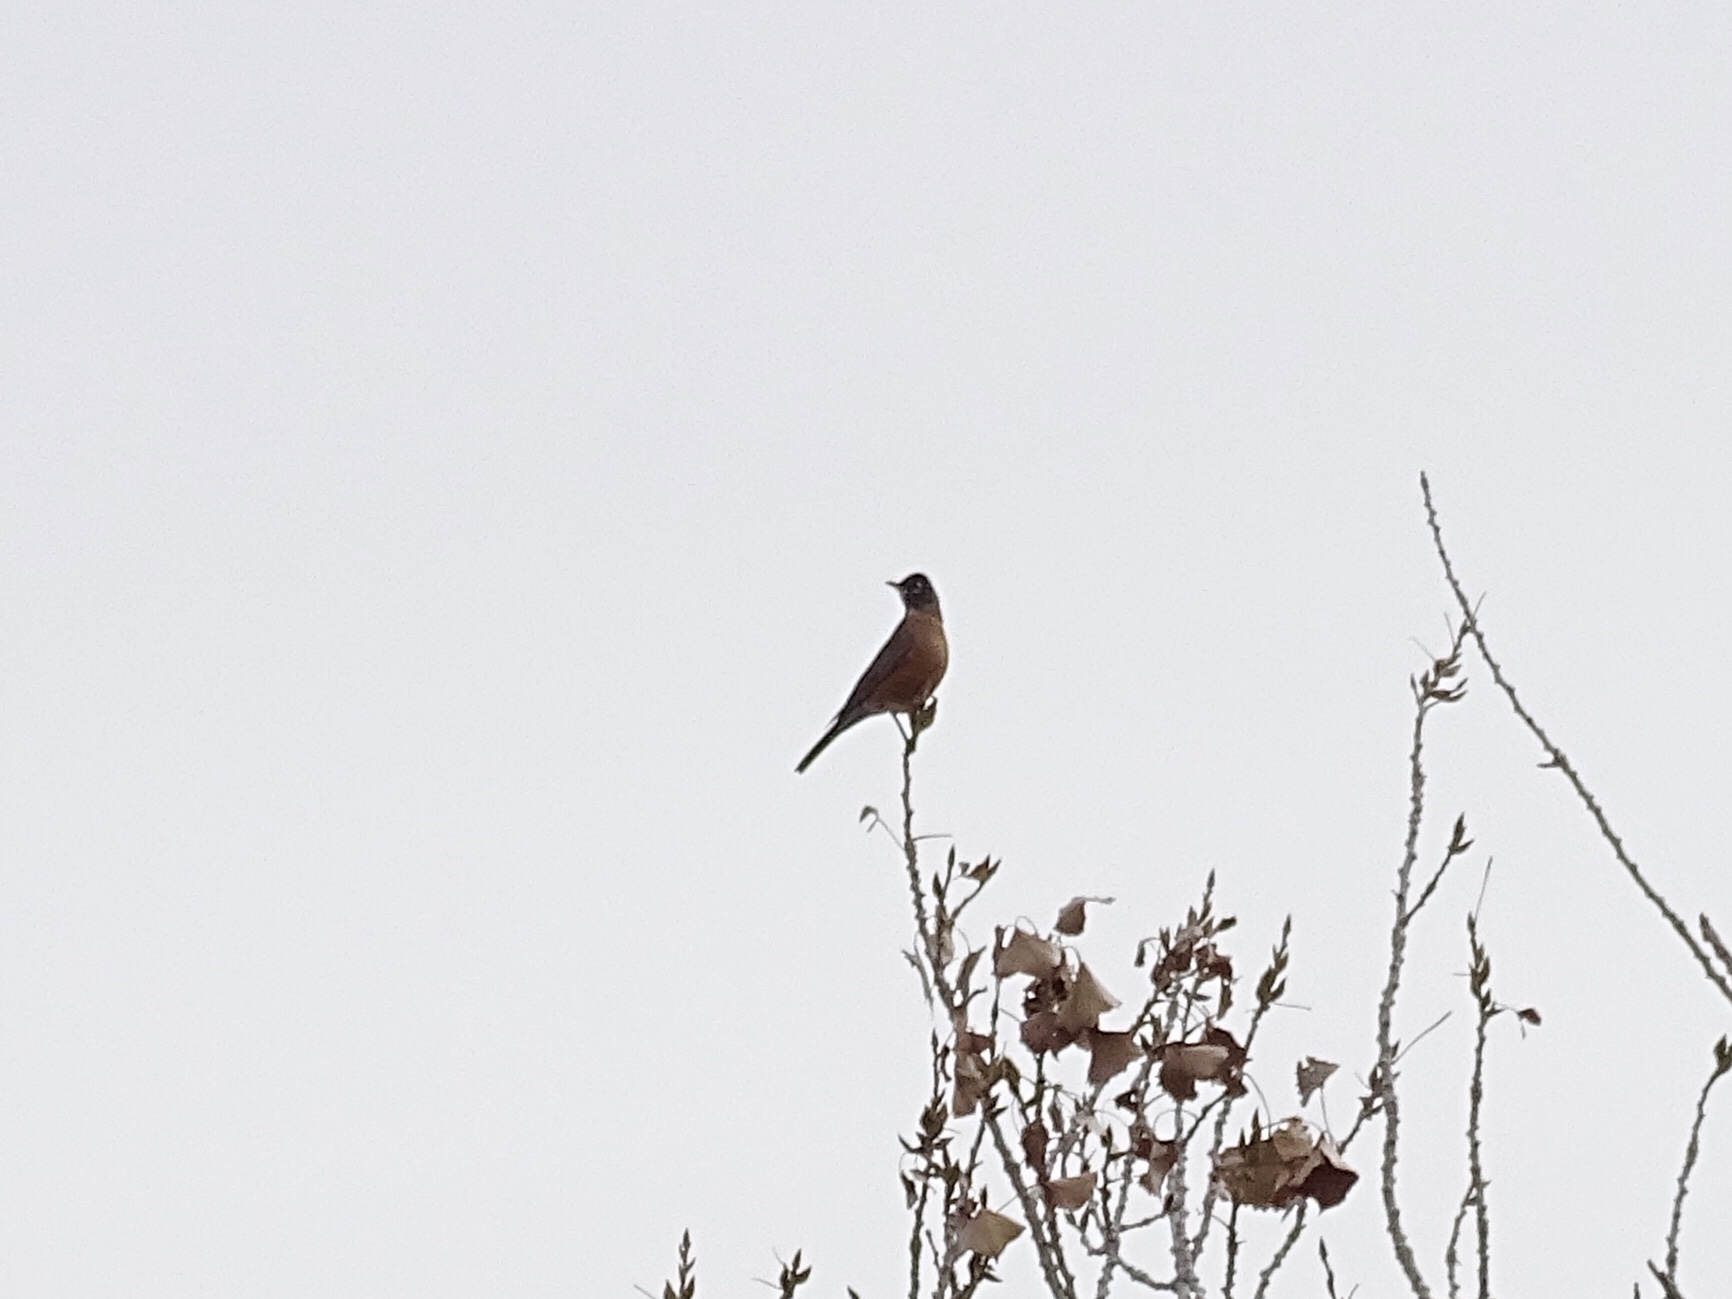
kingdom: Animalia
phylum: Chordata
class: Aves
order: Passeriformes
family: Turdidae
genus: Turdus
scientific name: Turdus migratorius
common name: American robin
